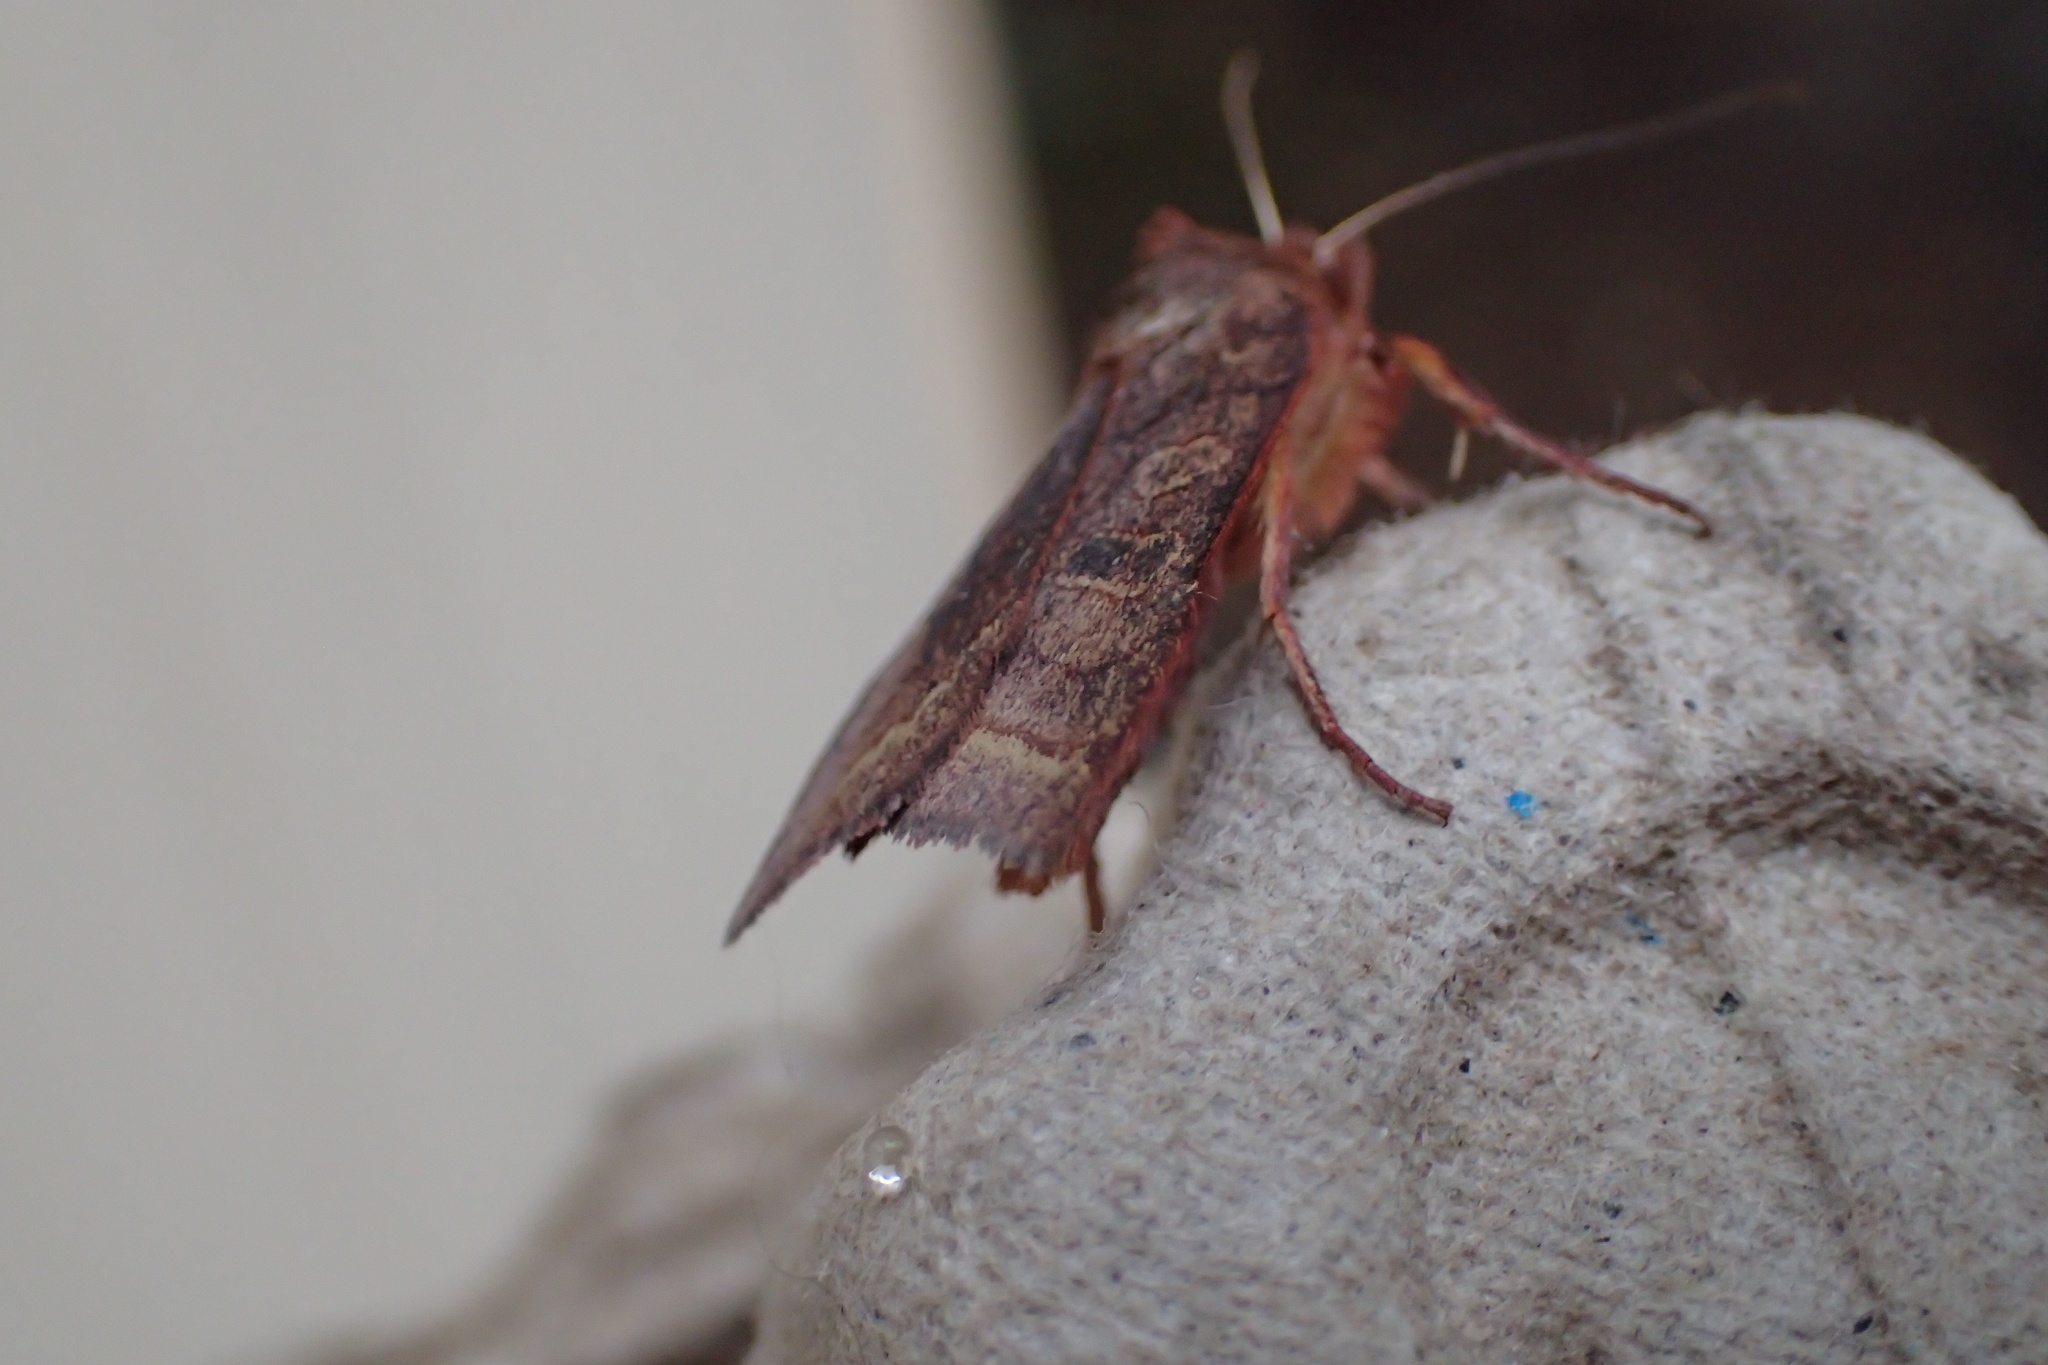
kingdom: Animalia
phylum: Arthropoda
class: Insecta
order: Lepidoptera
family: Noctuidae
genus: Epiglaea
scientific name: Epiglaea apiata
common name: Pointed sallow
